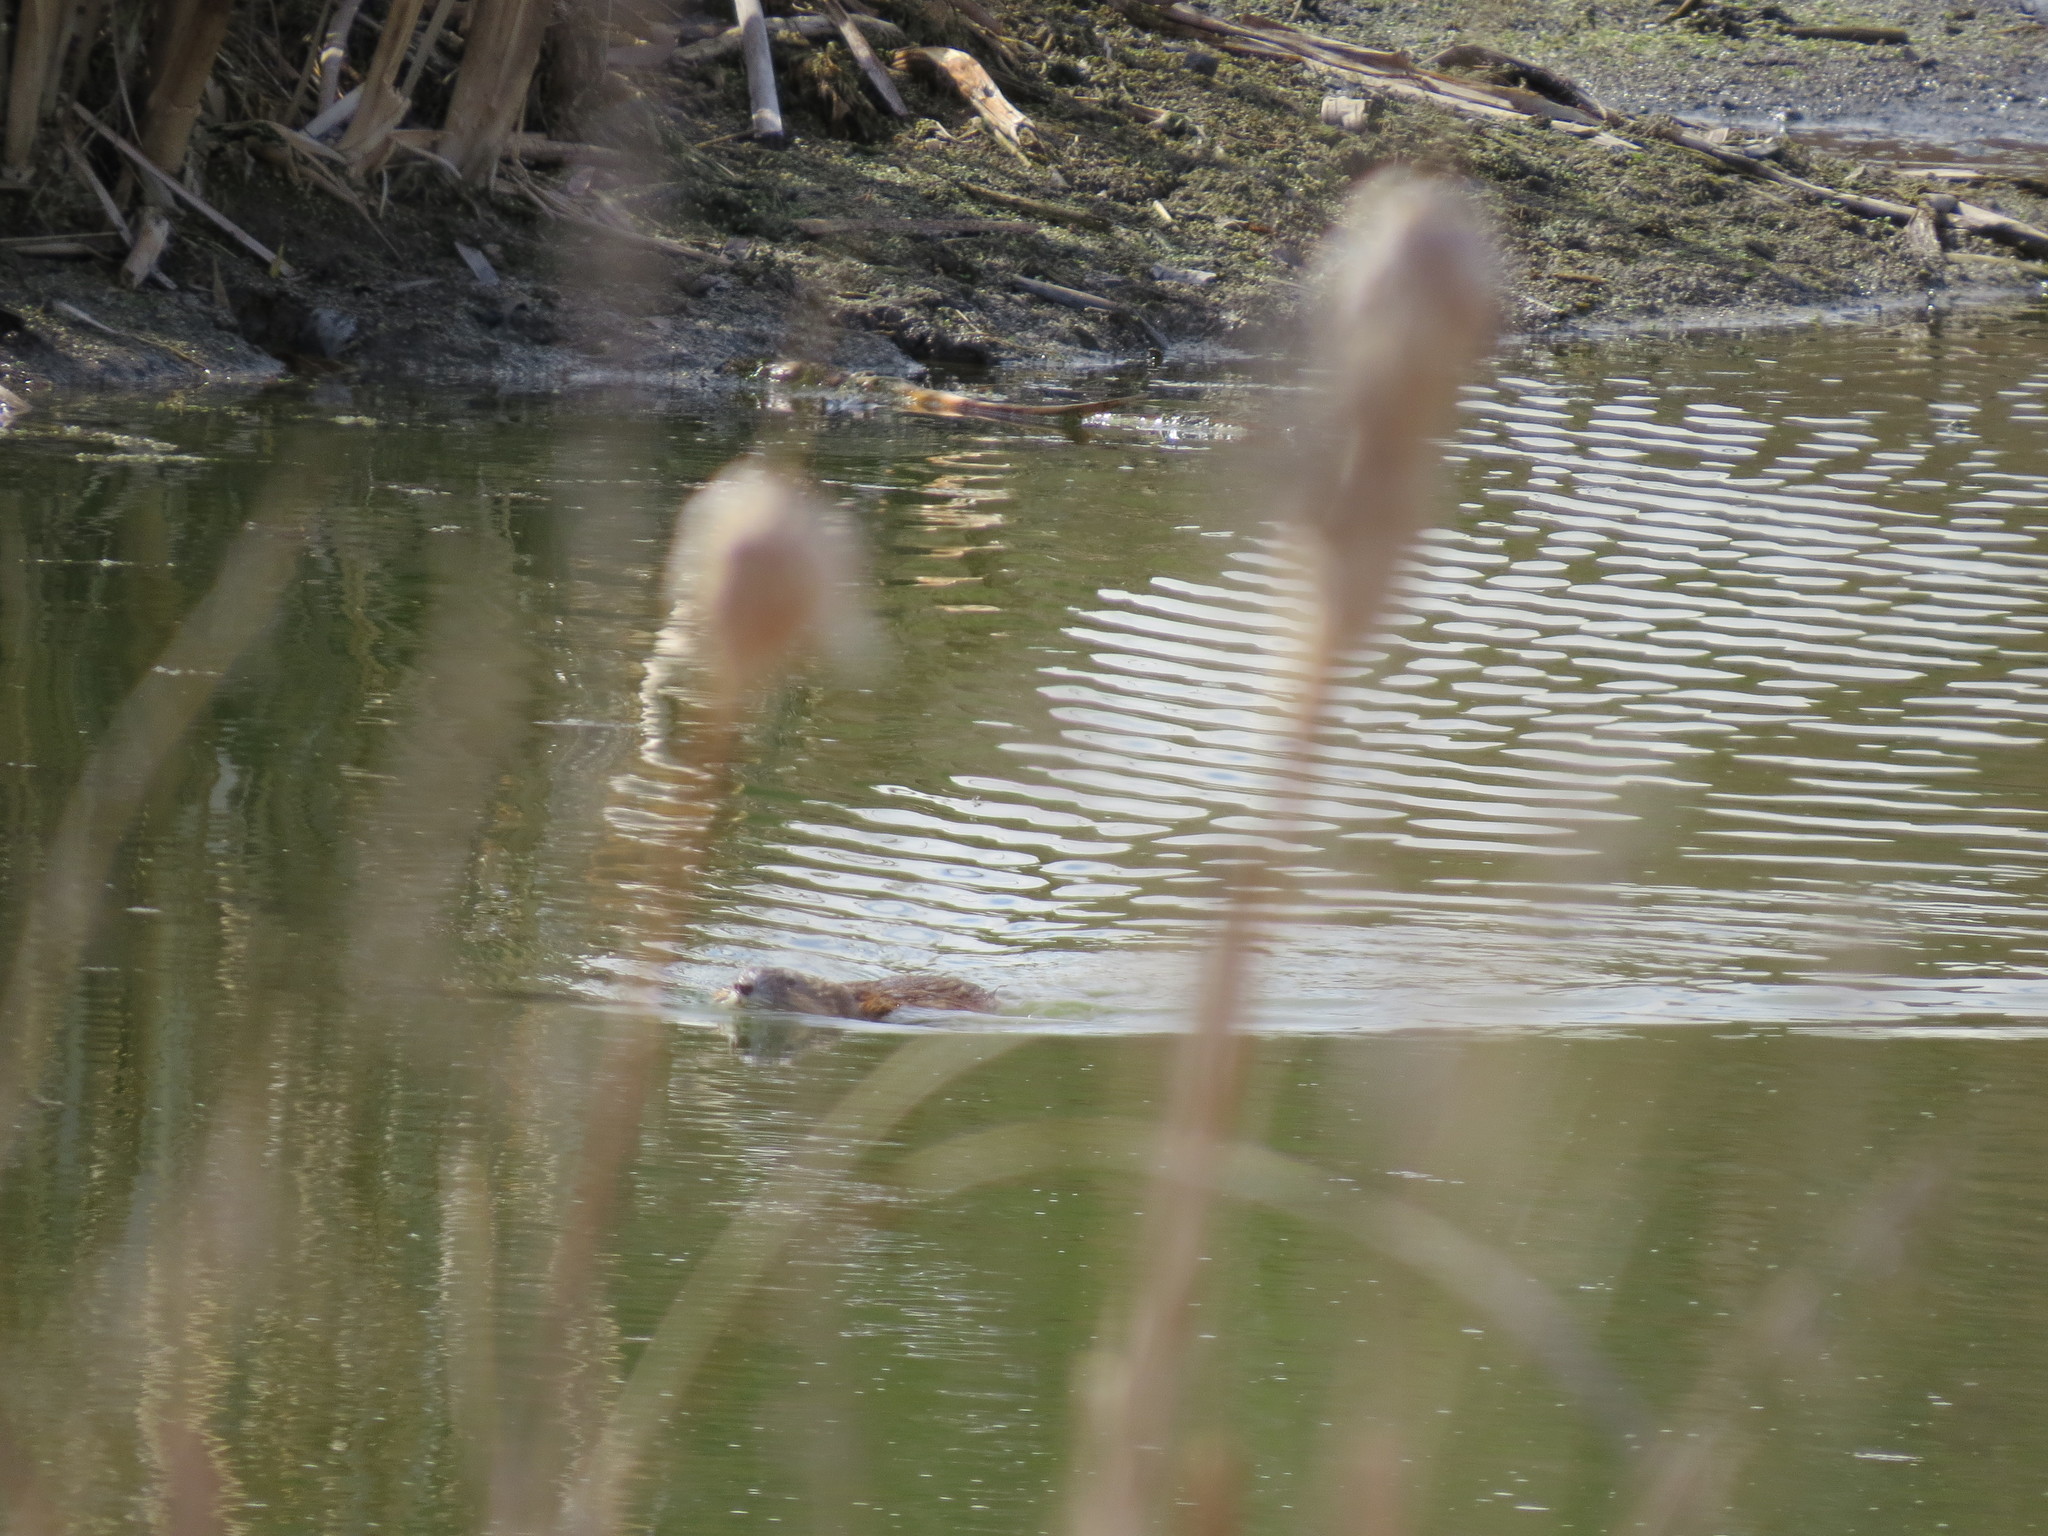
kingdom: Animalia
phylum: Chordata
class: Mammalia
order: Rodentia
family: Cricetidae
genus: Ondatra
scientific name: Ondatra zibethicus
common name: Muskrat
